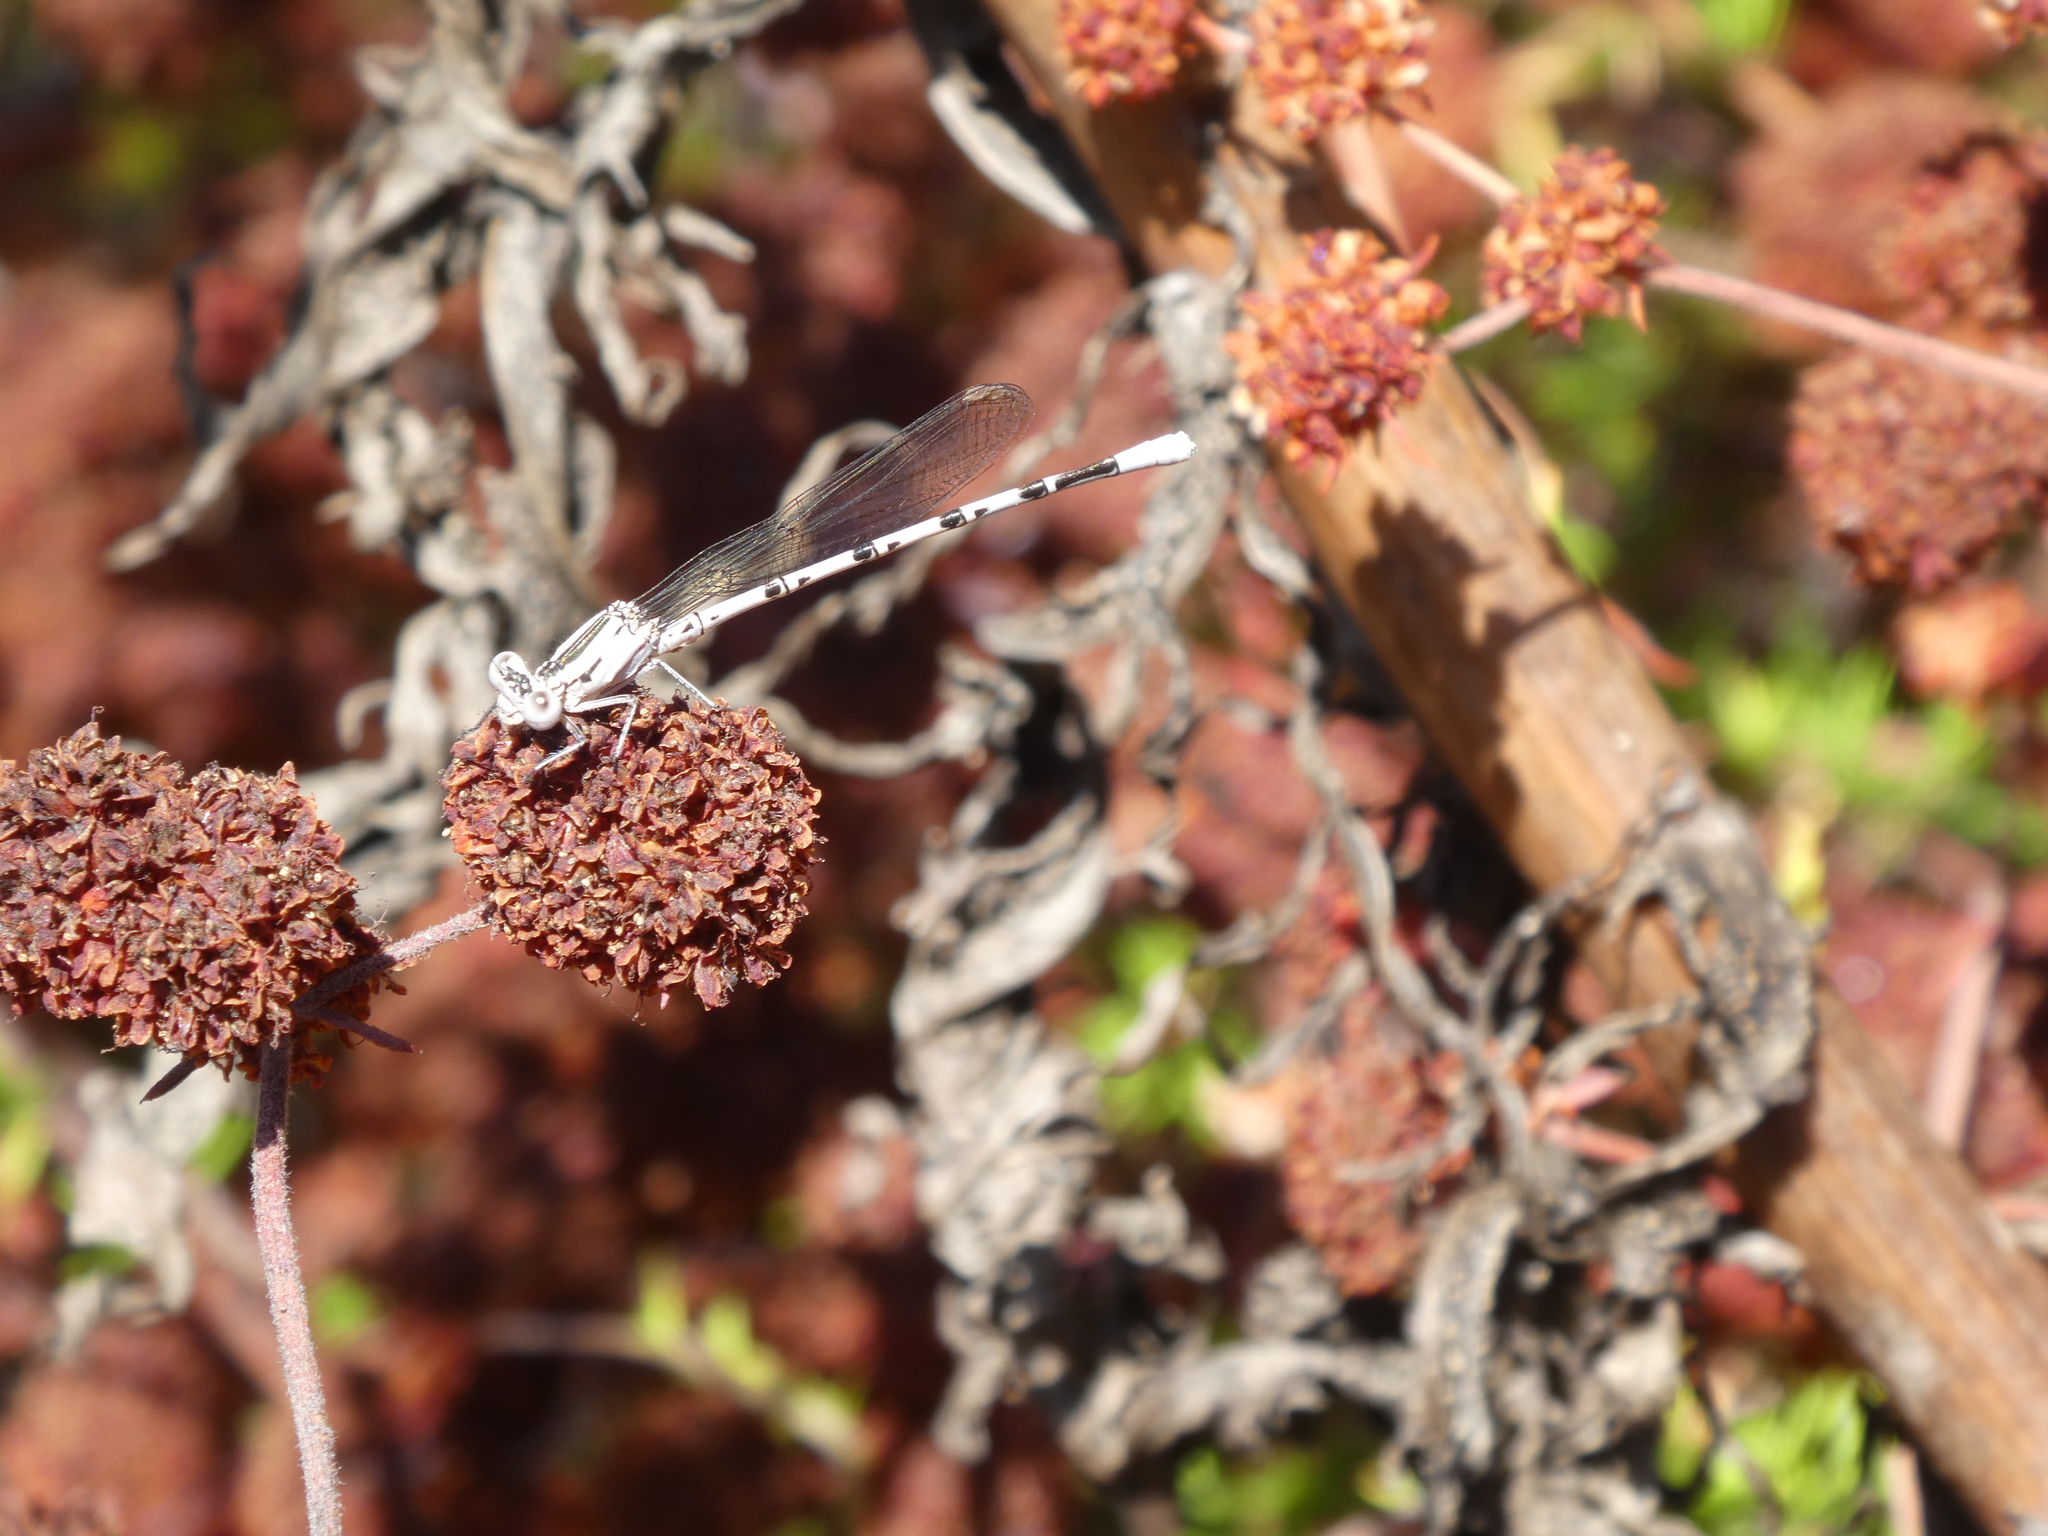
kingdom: Animalia
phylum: Arthropoda
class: Insecta
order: Odonata
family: Coenagrionidae
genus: Argia
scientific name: Argia vivida
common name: Vivid dancer
